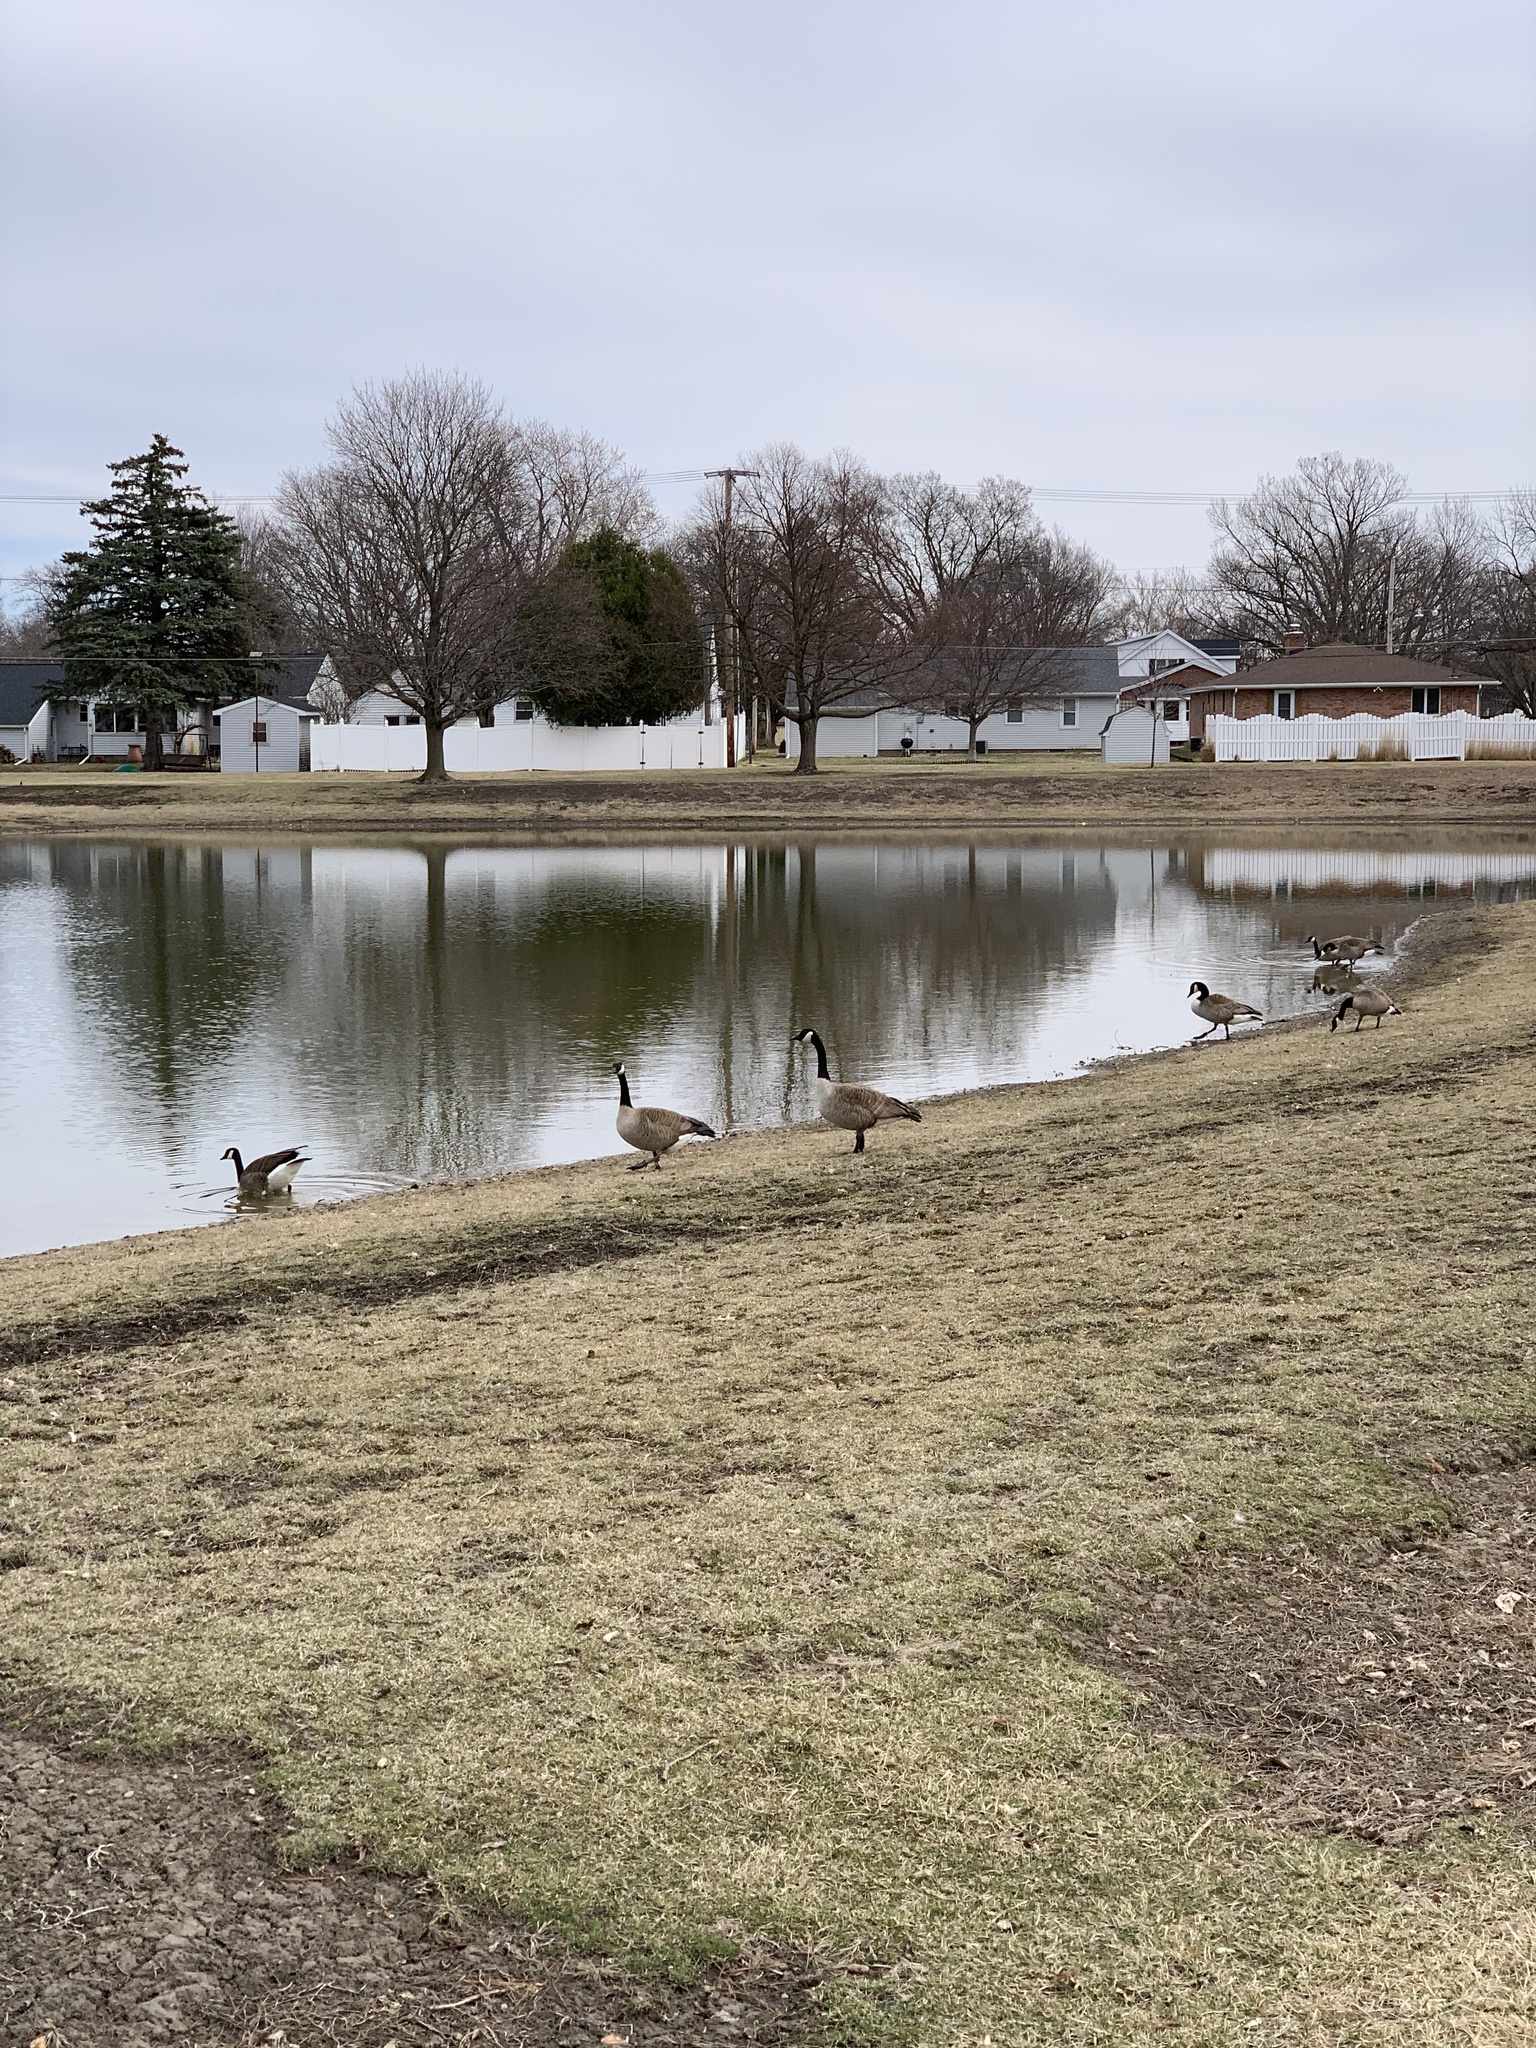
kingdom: Animalia
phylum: Chordata
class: Aves
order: Anseriformes
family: Anatidae
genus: Branta
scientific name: Branta canadensis
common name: Canada goose
